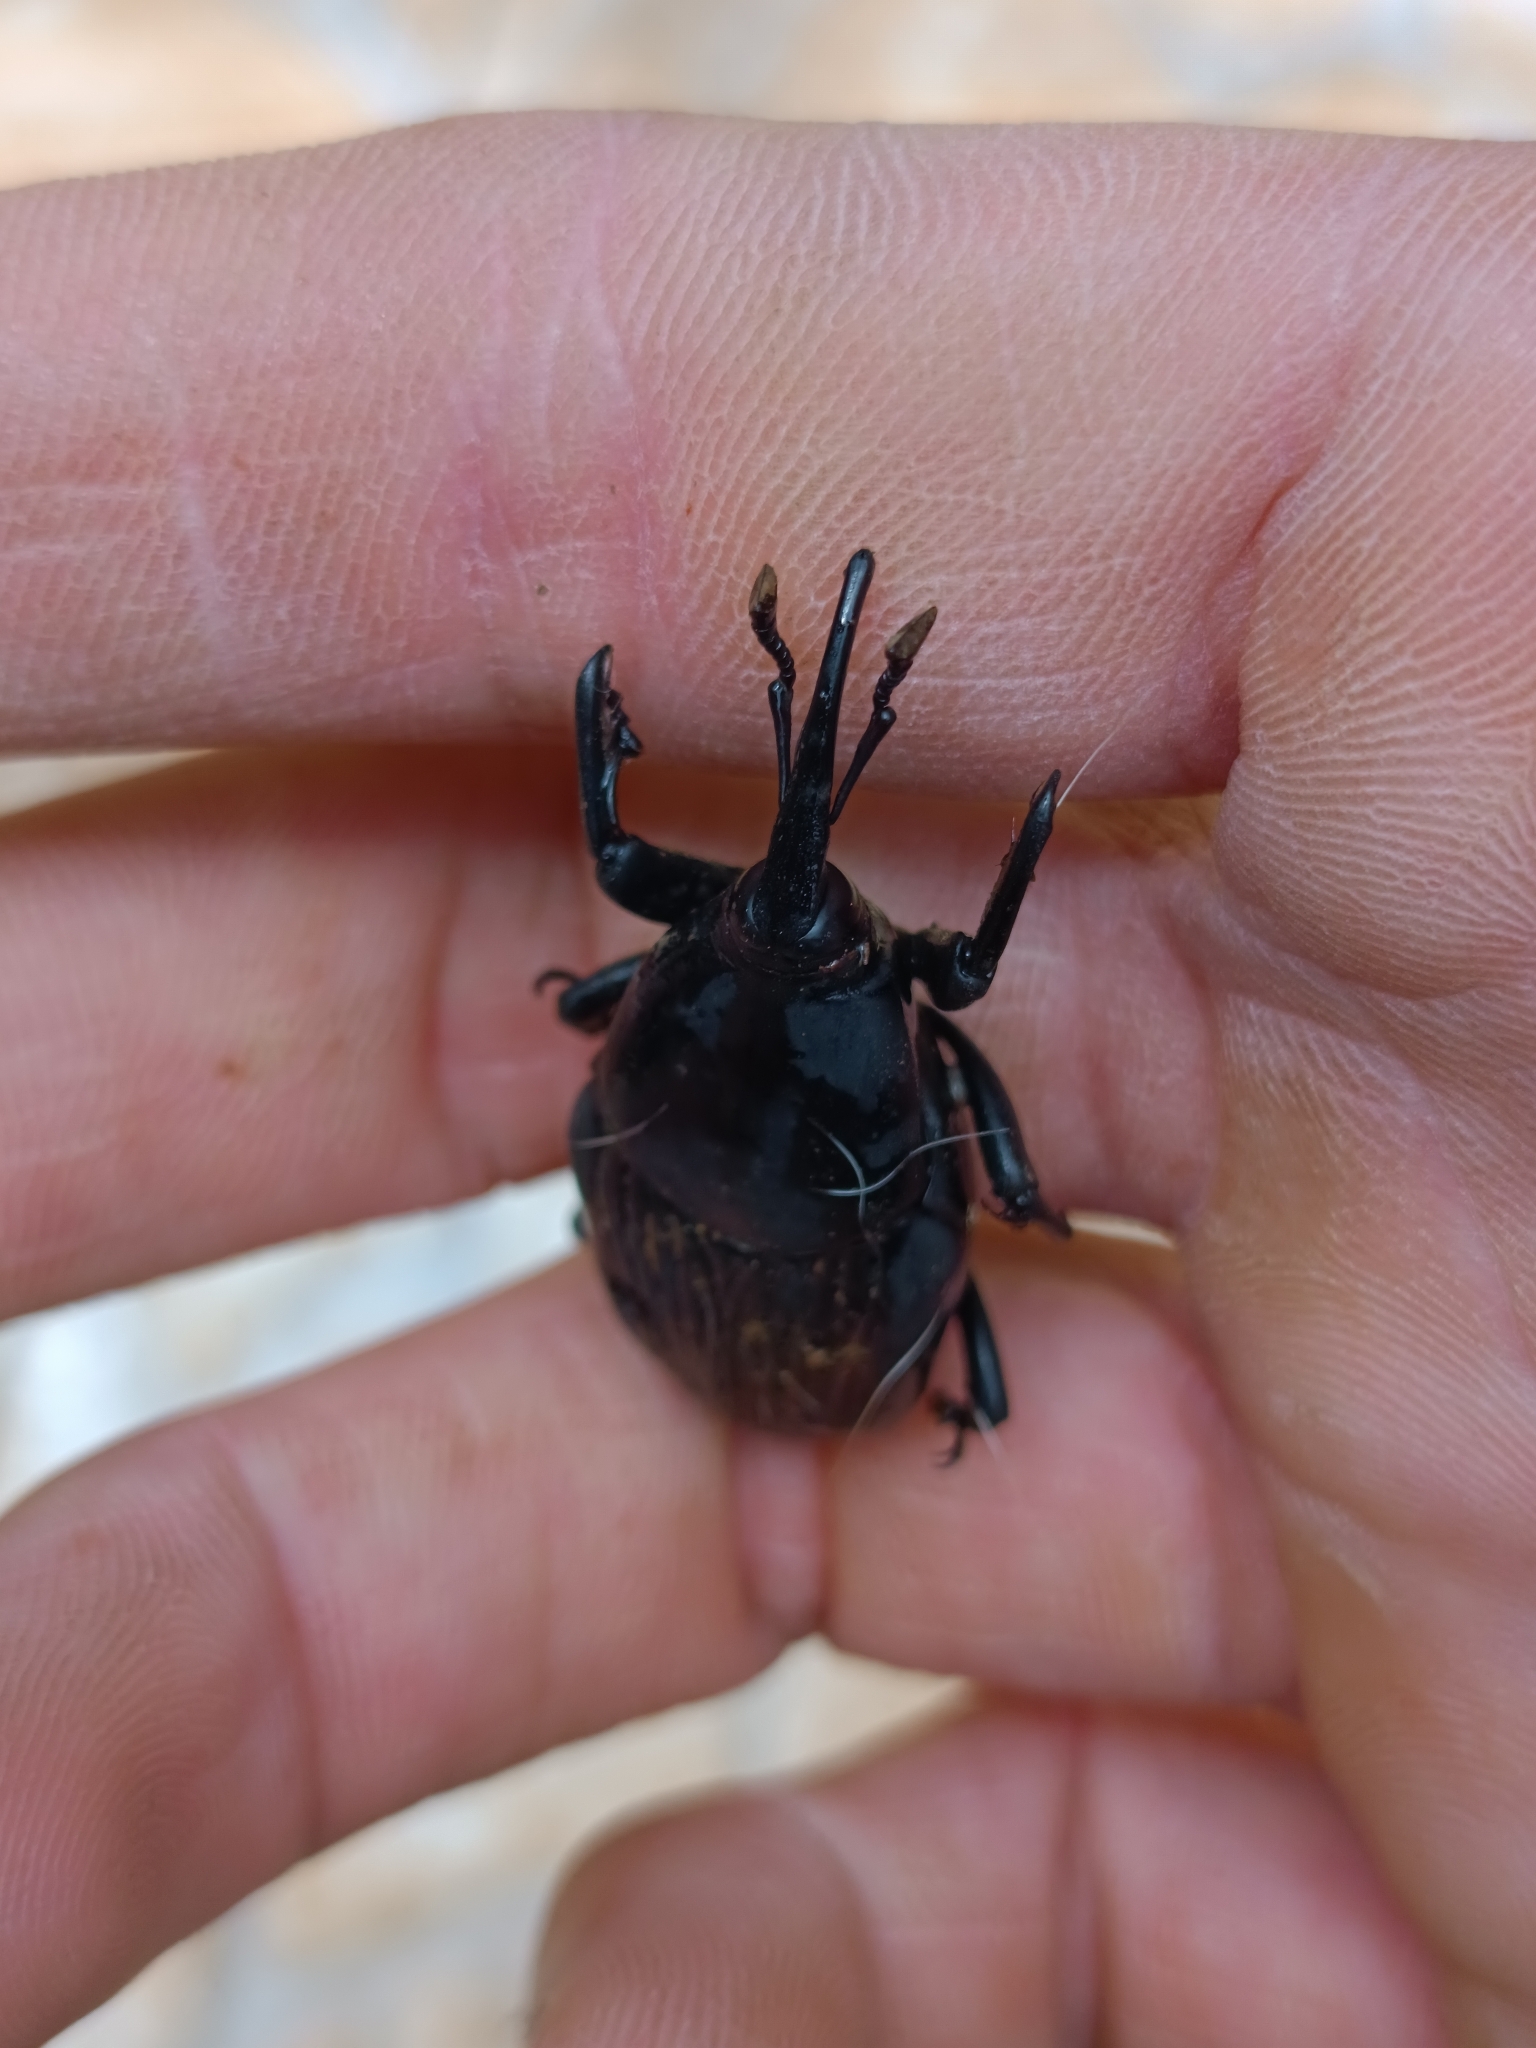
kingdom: Animalia
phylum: Arthropoda
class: Insecta
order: Coleoptera
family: Dryophthoridae
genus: Rhynchophorus
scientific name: Rhynchophorus palmarum
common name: Palm weevil
